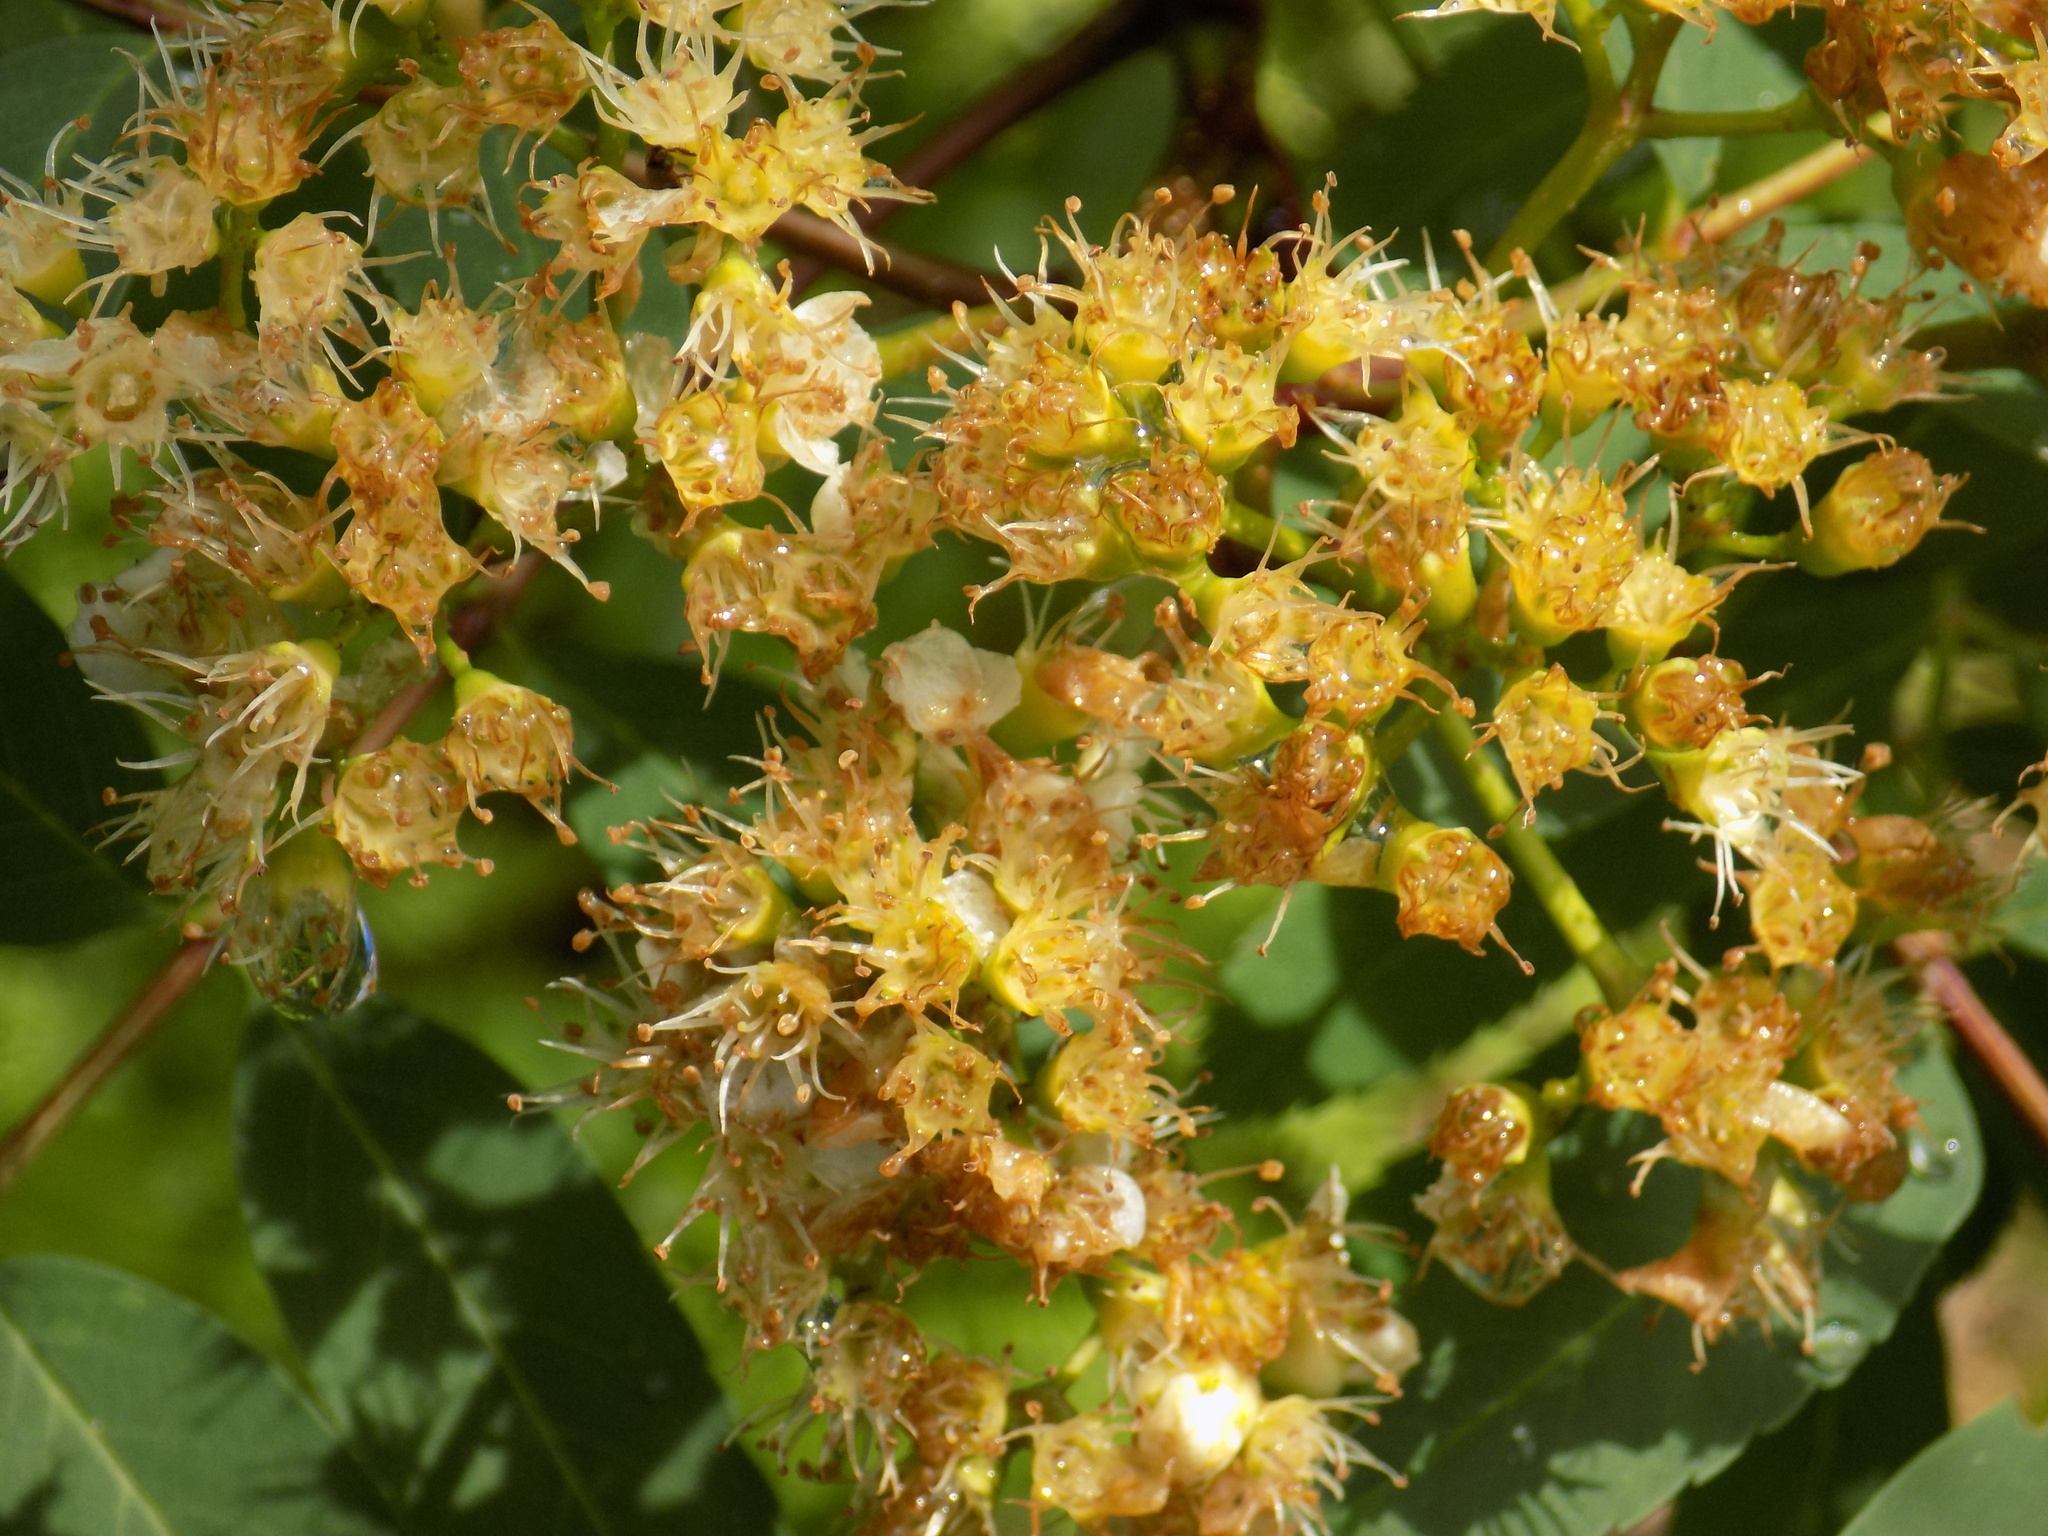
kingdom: Plantae
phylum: Tracheophyta
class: Magnoliopsida
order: Rosales
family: Rosaceae
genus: Sorbus
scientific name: Sorbus aucuparia
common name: Rowan
